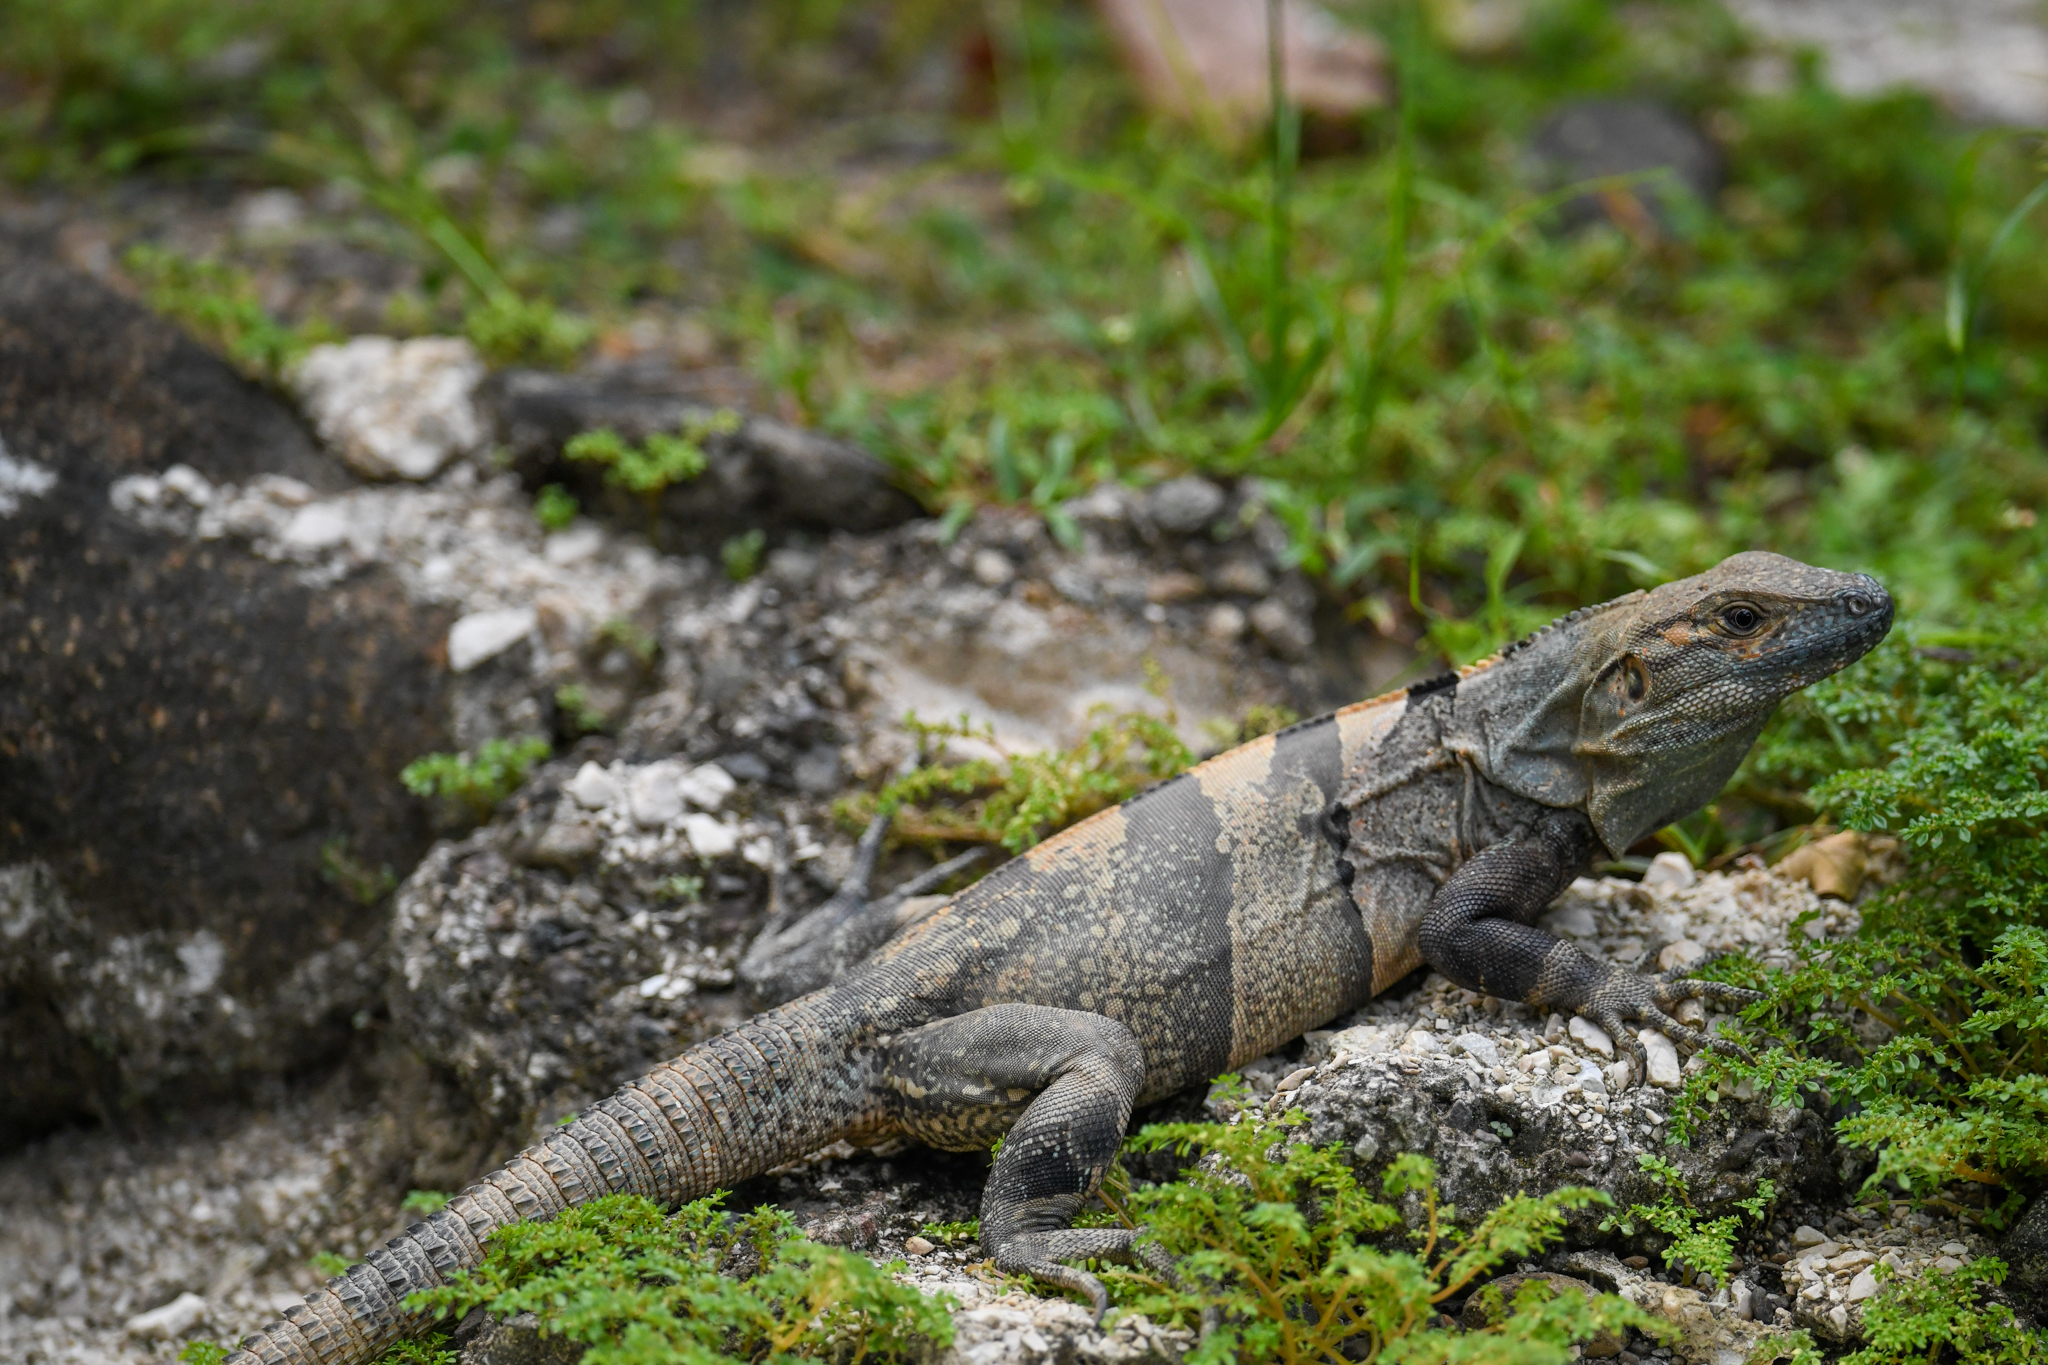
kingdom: Animalia
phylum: Chordata
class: Squamata
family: Iguanidae
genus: Ctenosaura
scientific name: Ctenosaura similis
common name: Black spiny-tailed iguana
